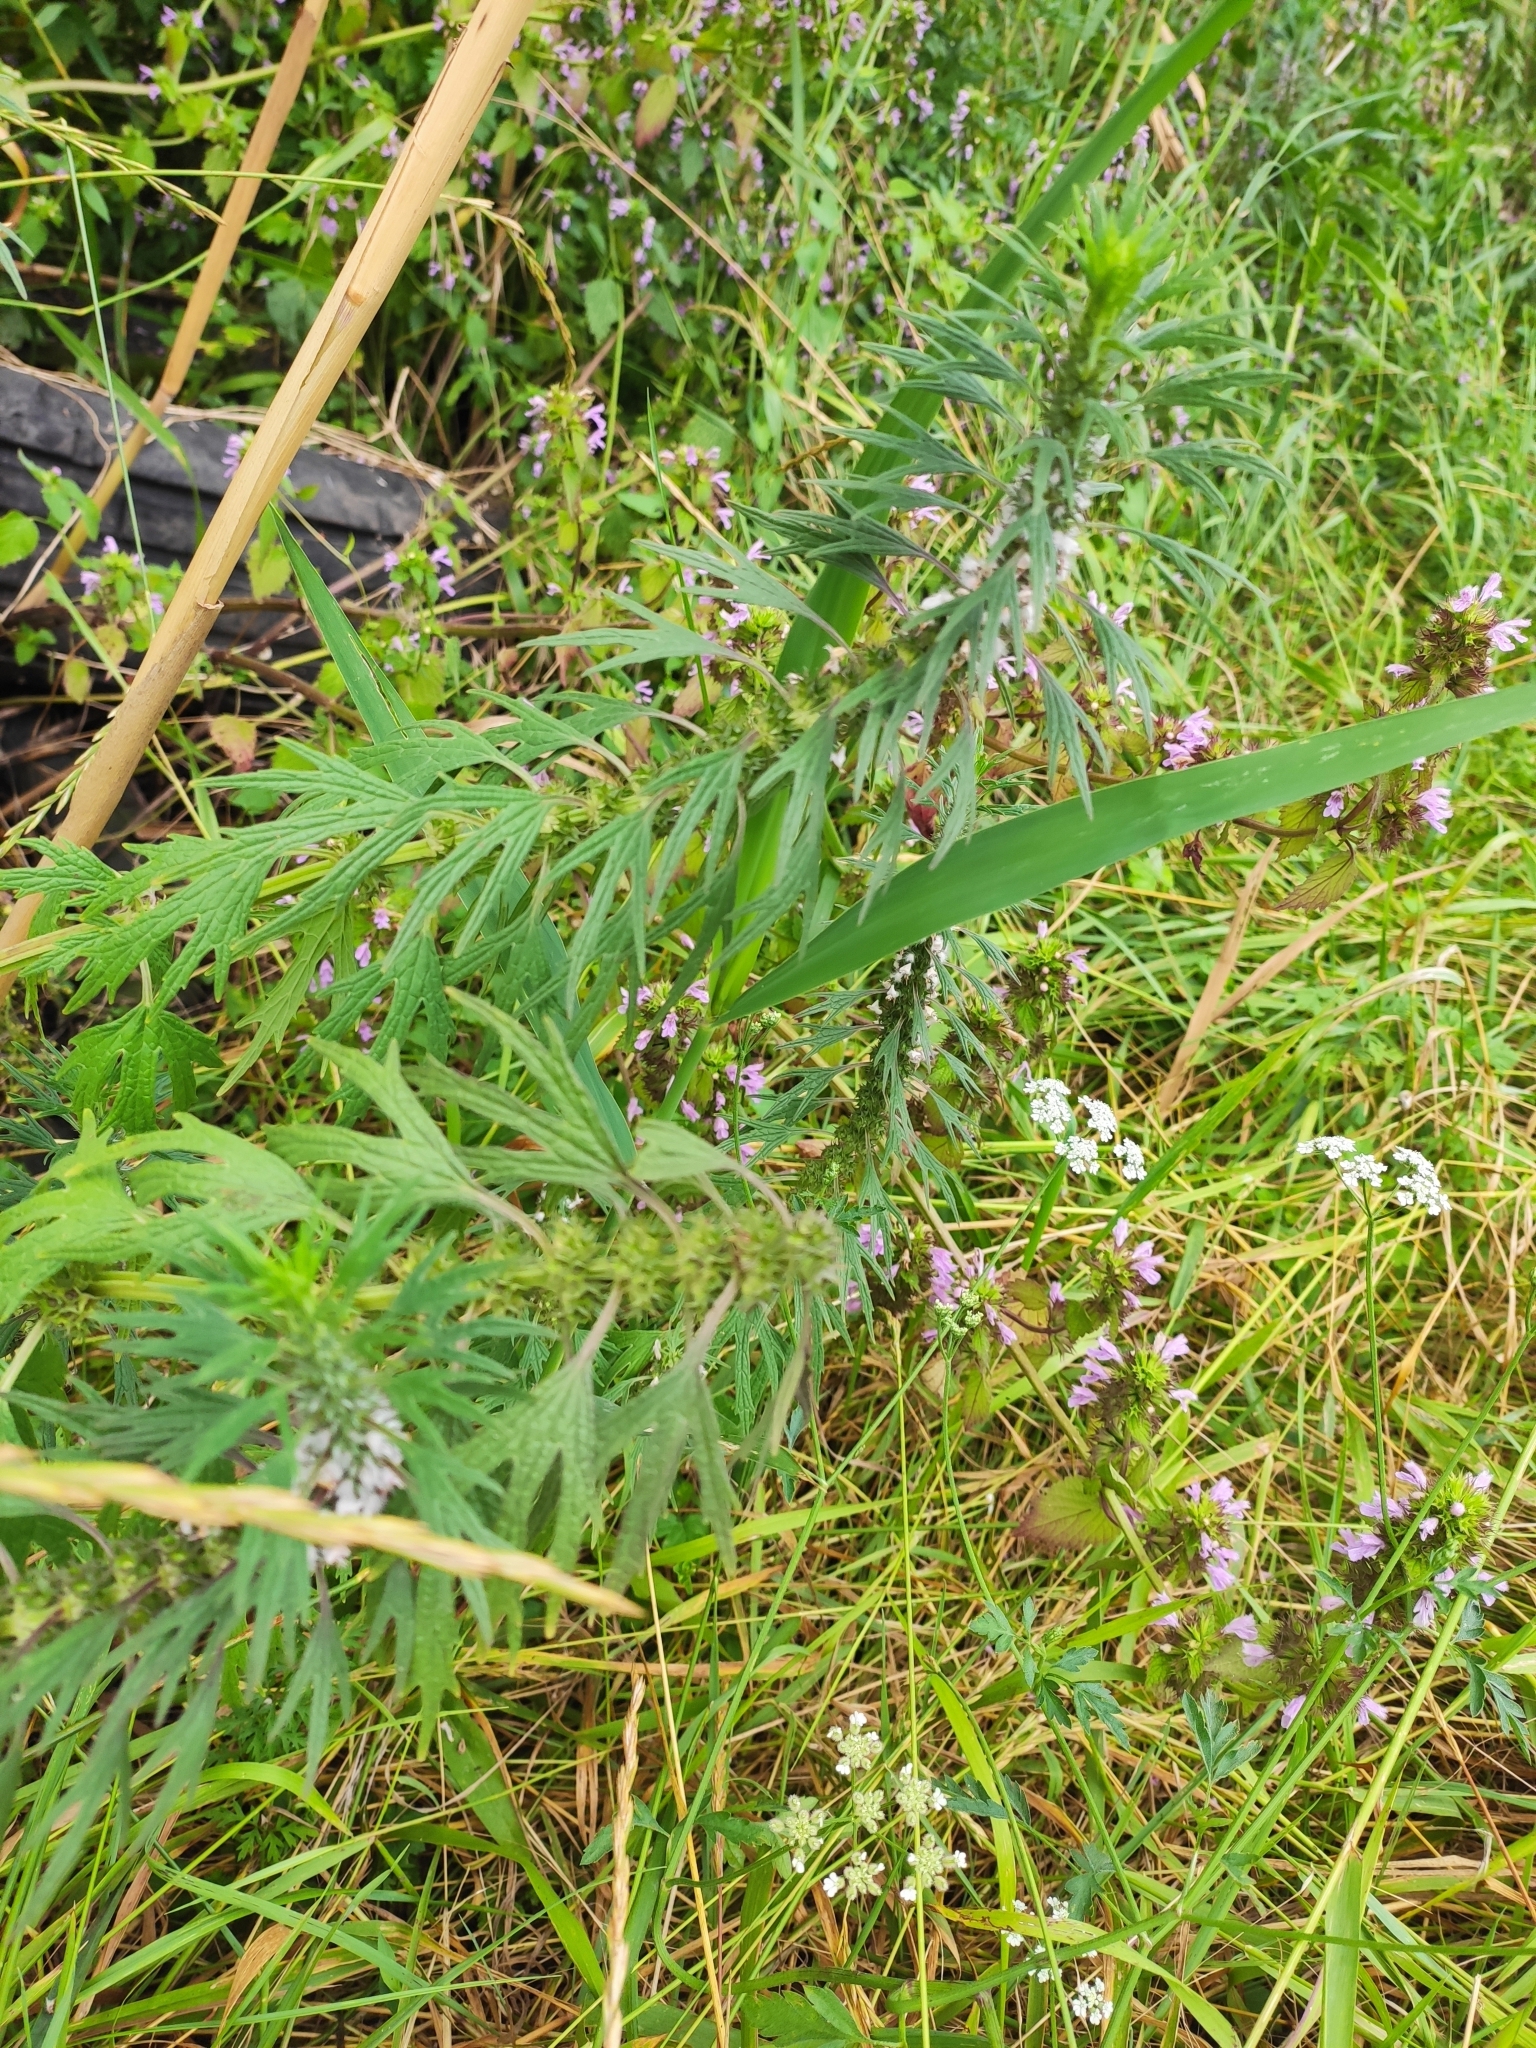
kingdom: Plantae
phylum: Tracheophyta
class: Magnoliopsida
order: Lamiales
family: Lamiaceae
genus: Leonurus
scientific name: Leonurus glaucescens
